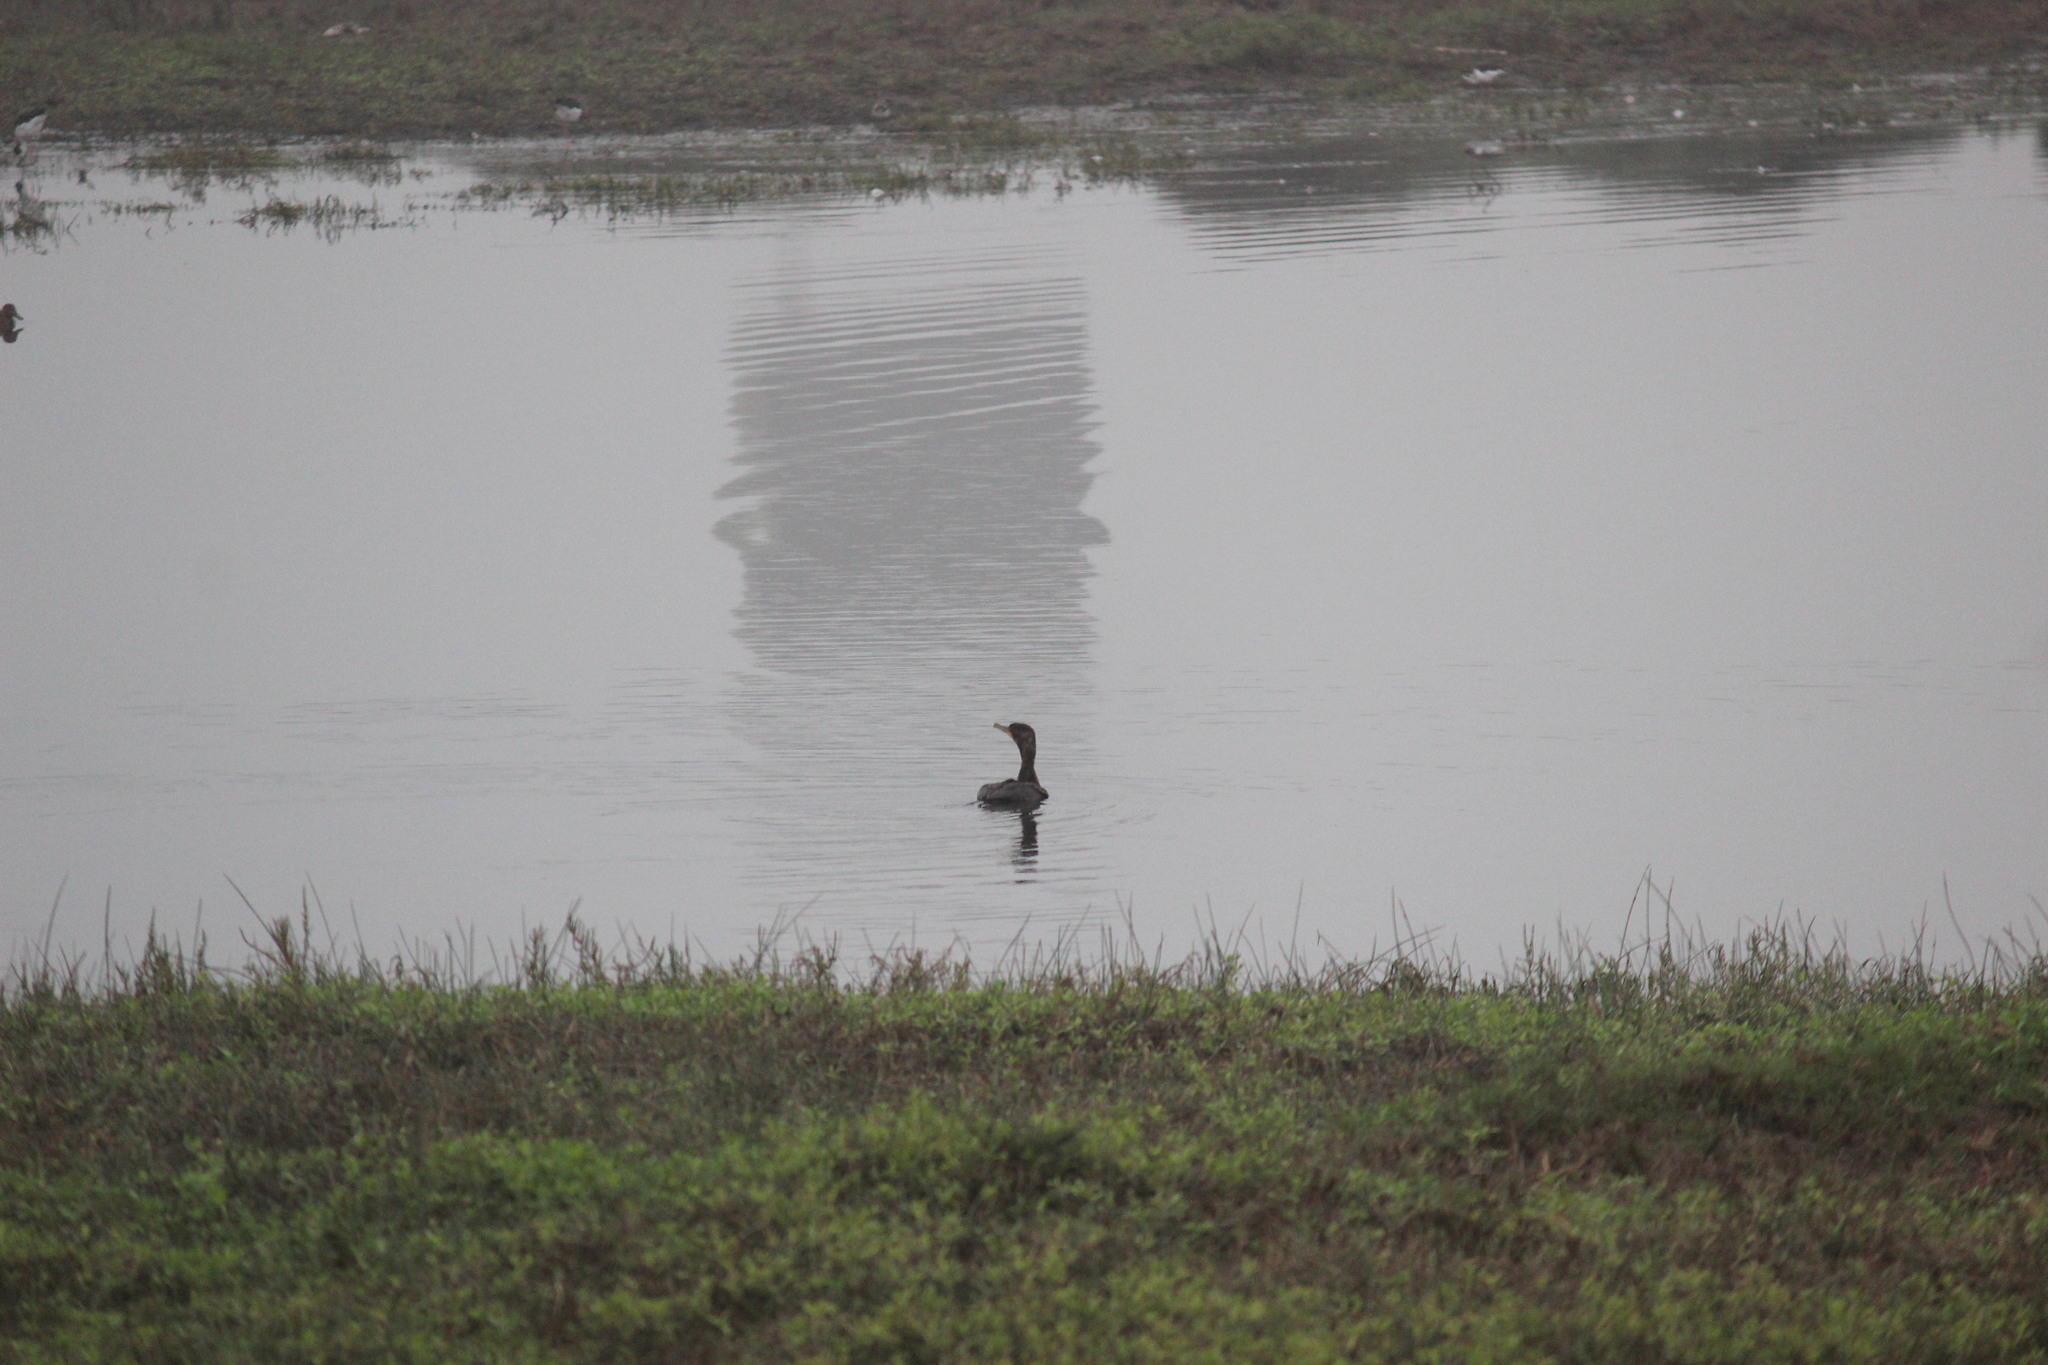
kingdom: Animalia
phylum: Chordata
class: Aves
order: Suliformes
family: Phalacrocoracidae
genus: Phalacrocorax
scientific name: Phalacrocorax brasilianus
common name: Neotropic cormorant
